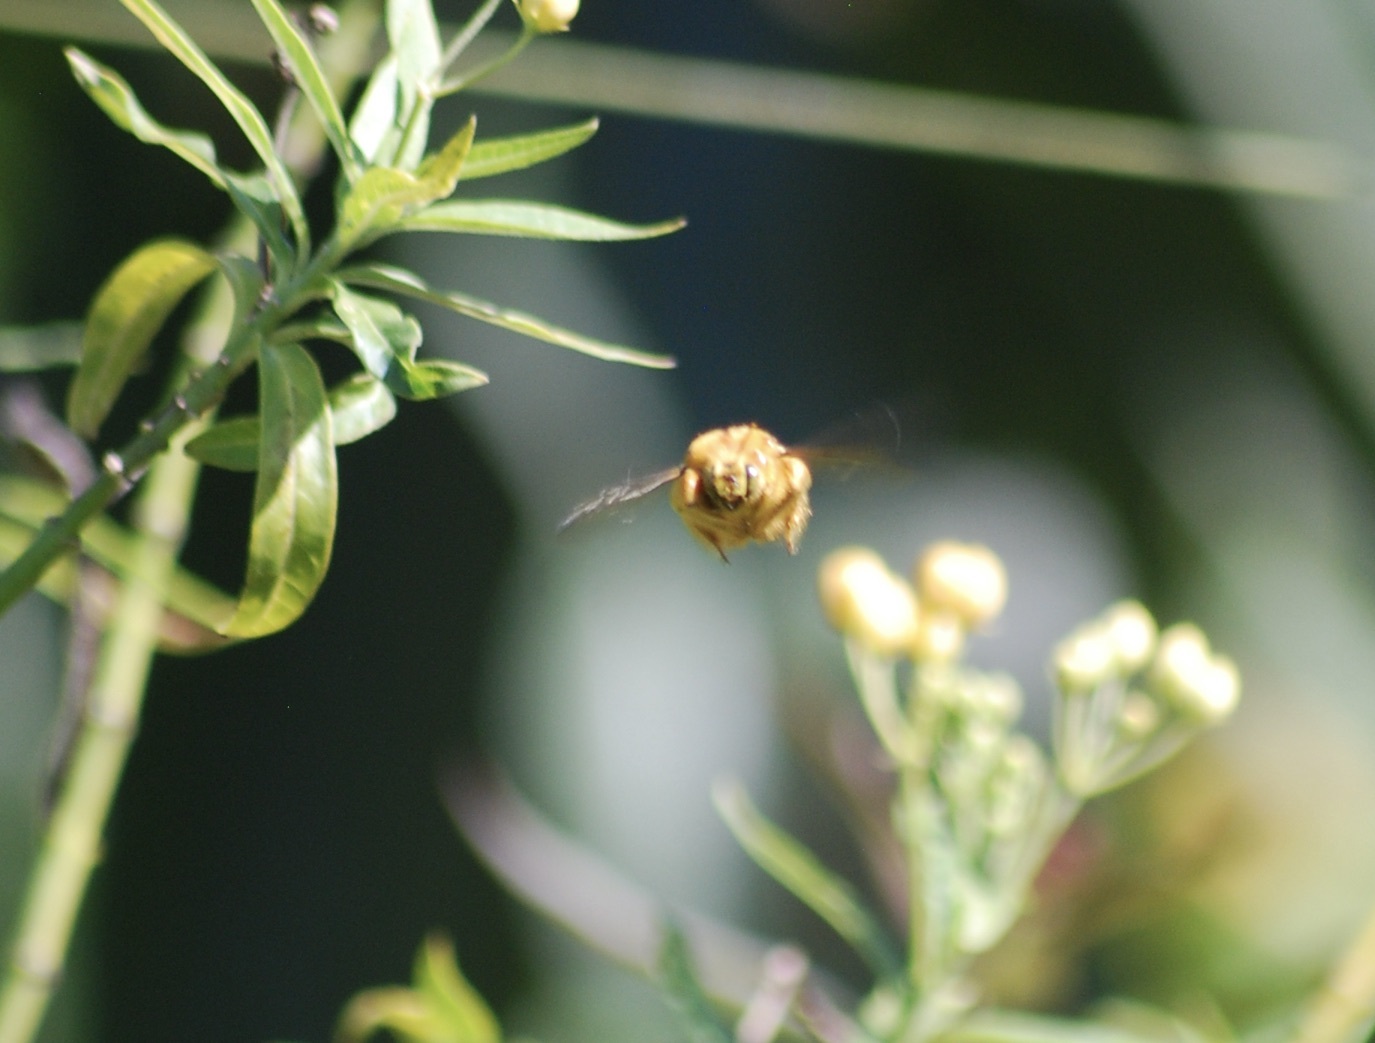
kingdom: Animalia
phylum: Arthropoda
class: Insecta
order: Hymenoptera
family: Apidae
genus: Xylocopa
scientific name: Xylocopa sonorina
